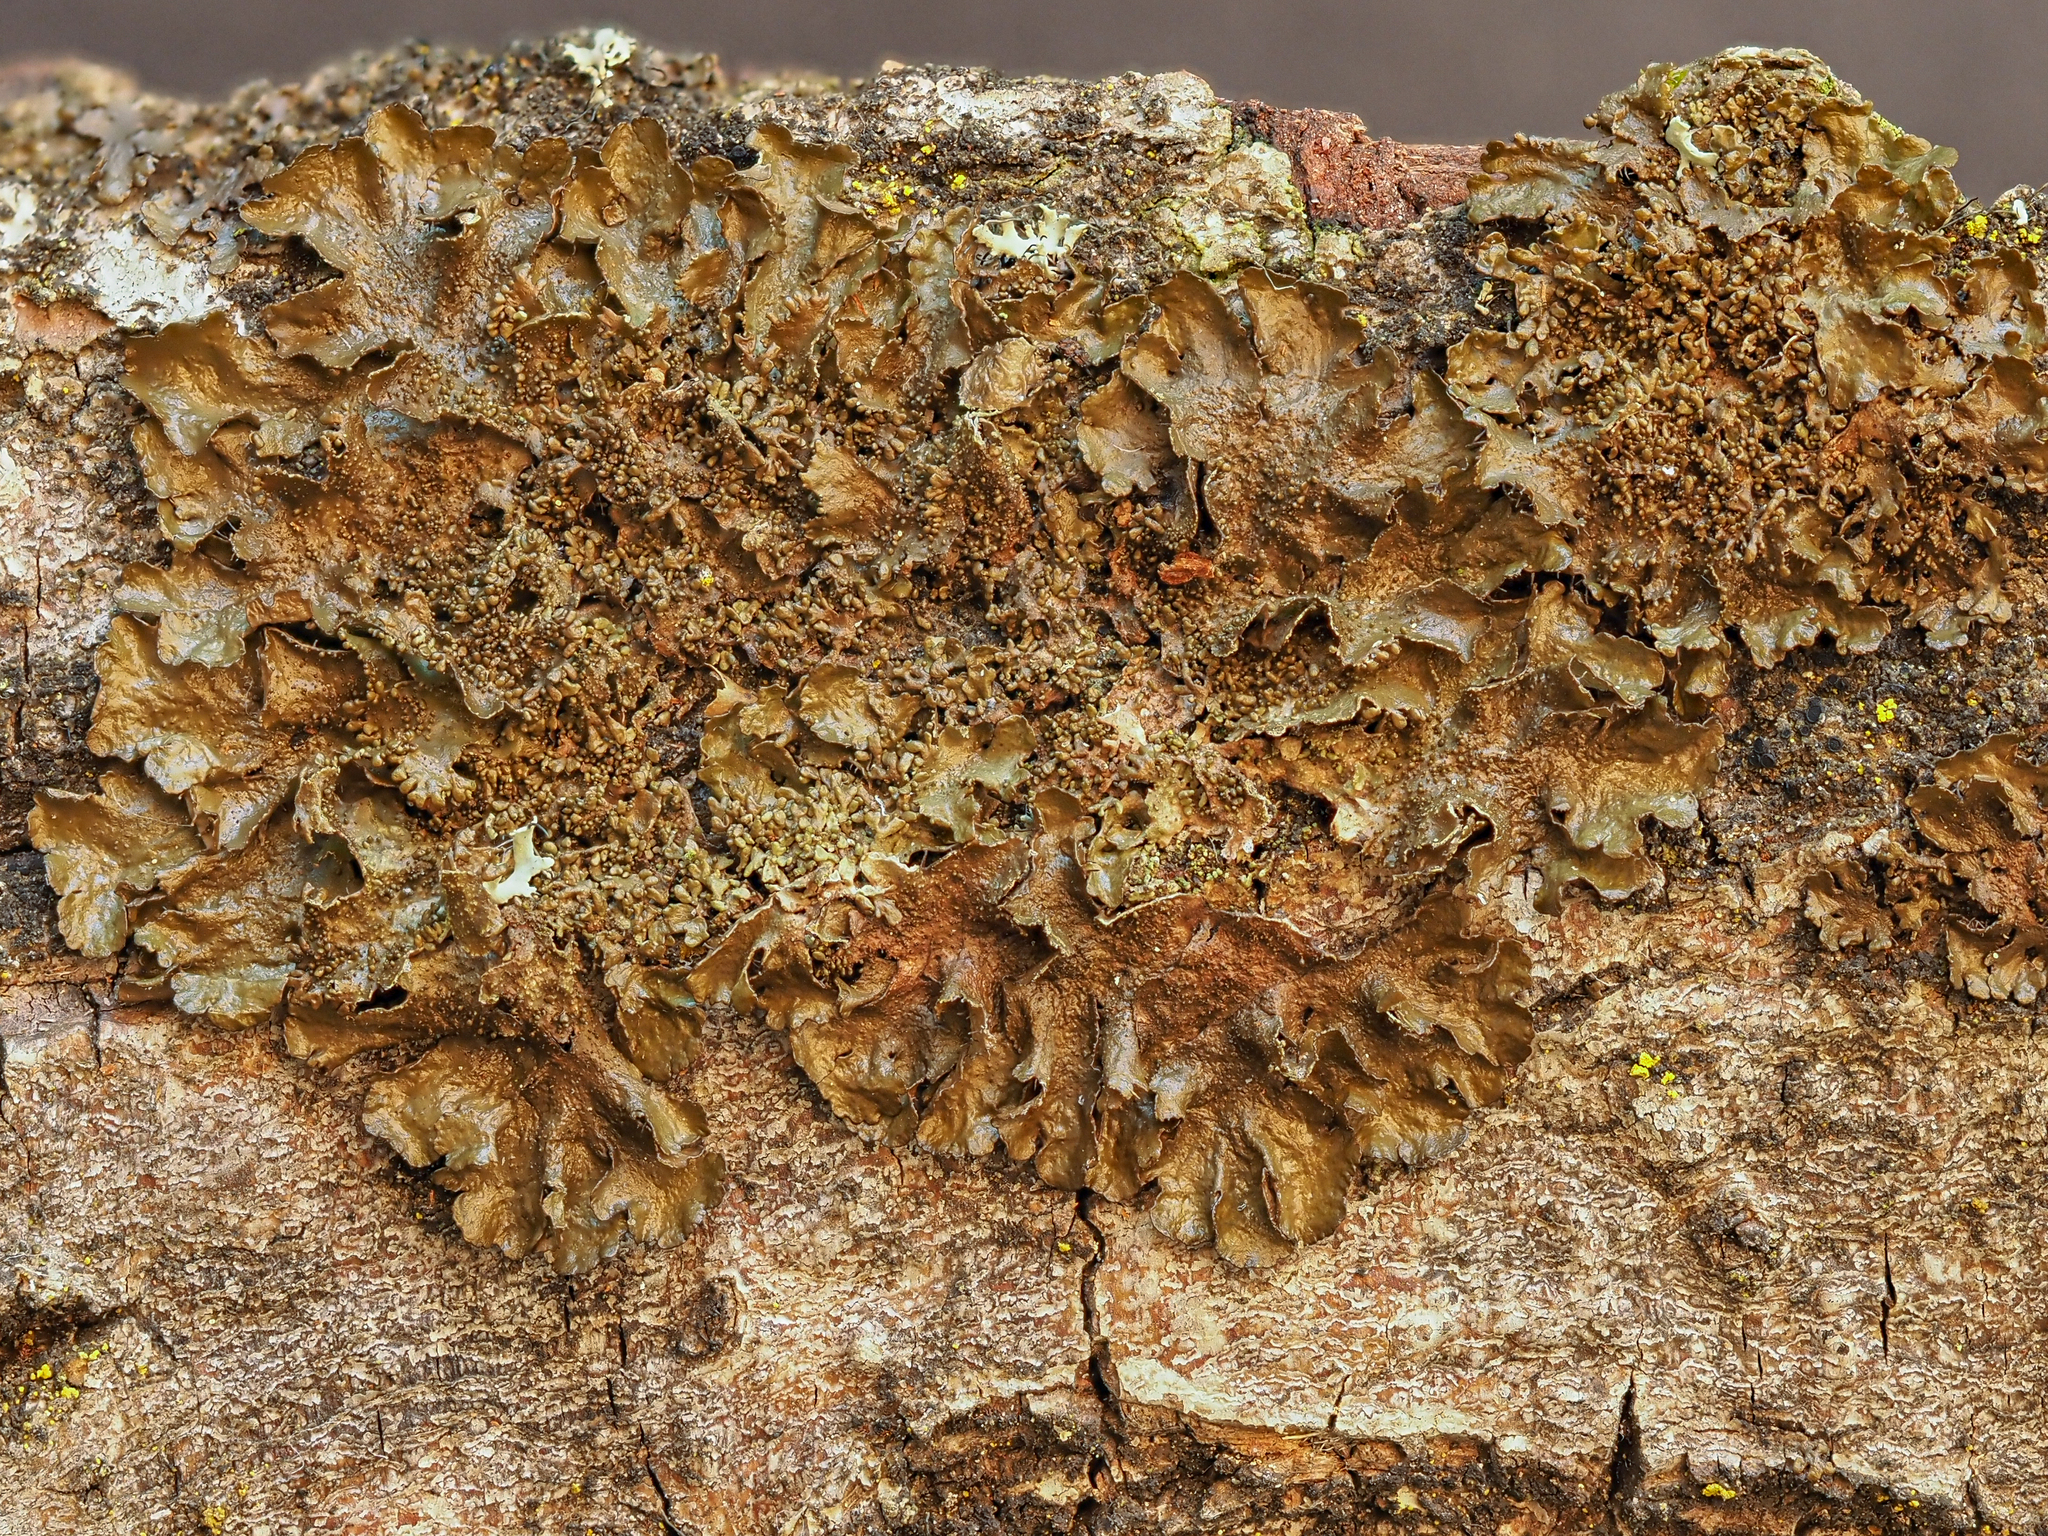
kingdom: Fungi
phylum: Ascomycota
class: Lecanoromycetes
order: Lecanorales
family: Parmeliaceae
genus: Melanohalea
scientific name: Melanohalea exasperatula
